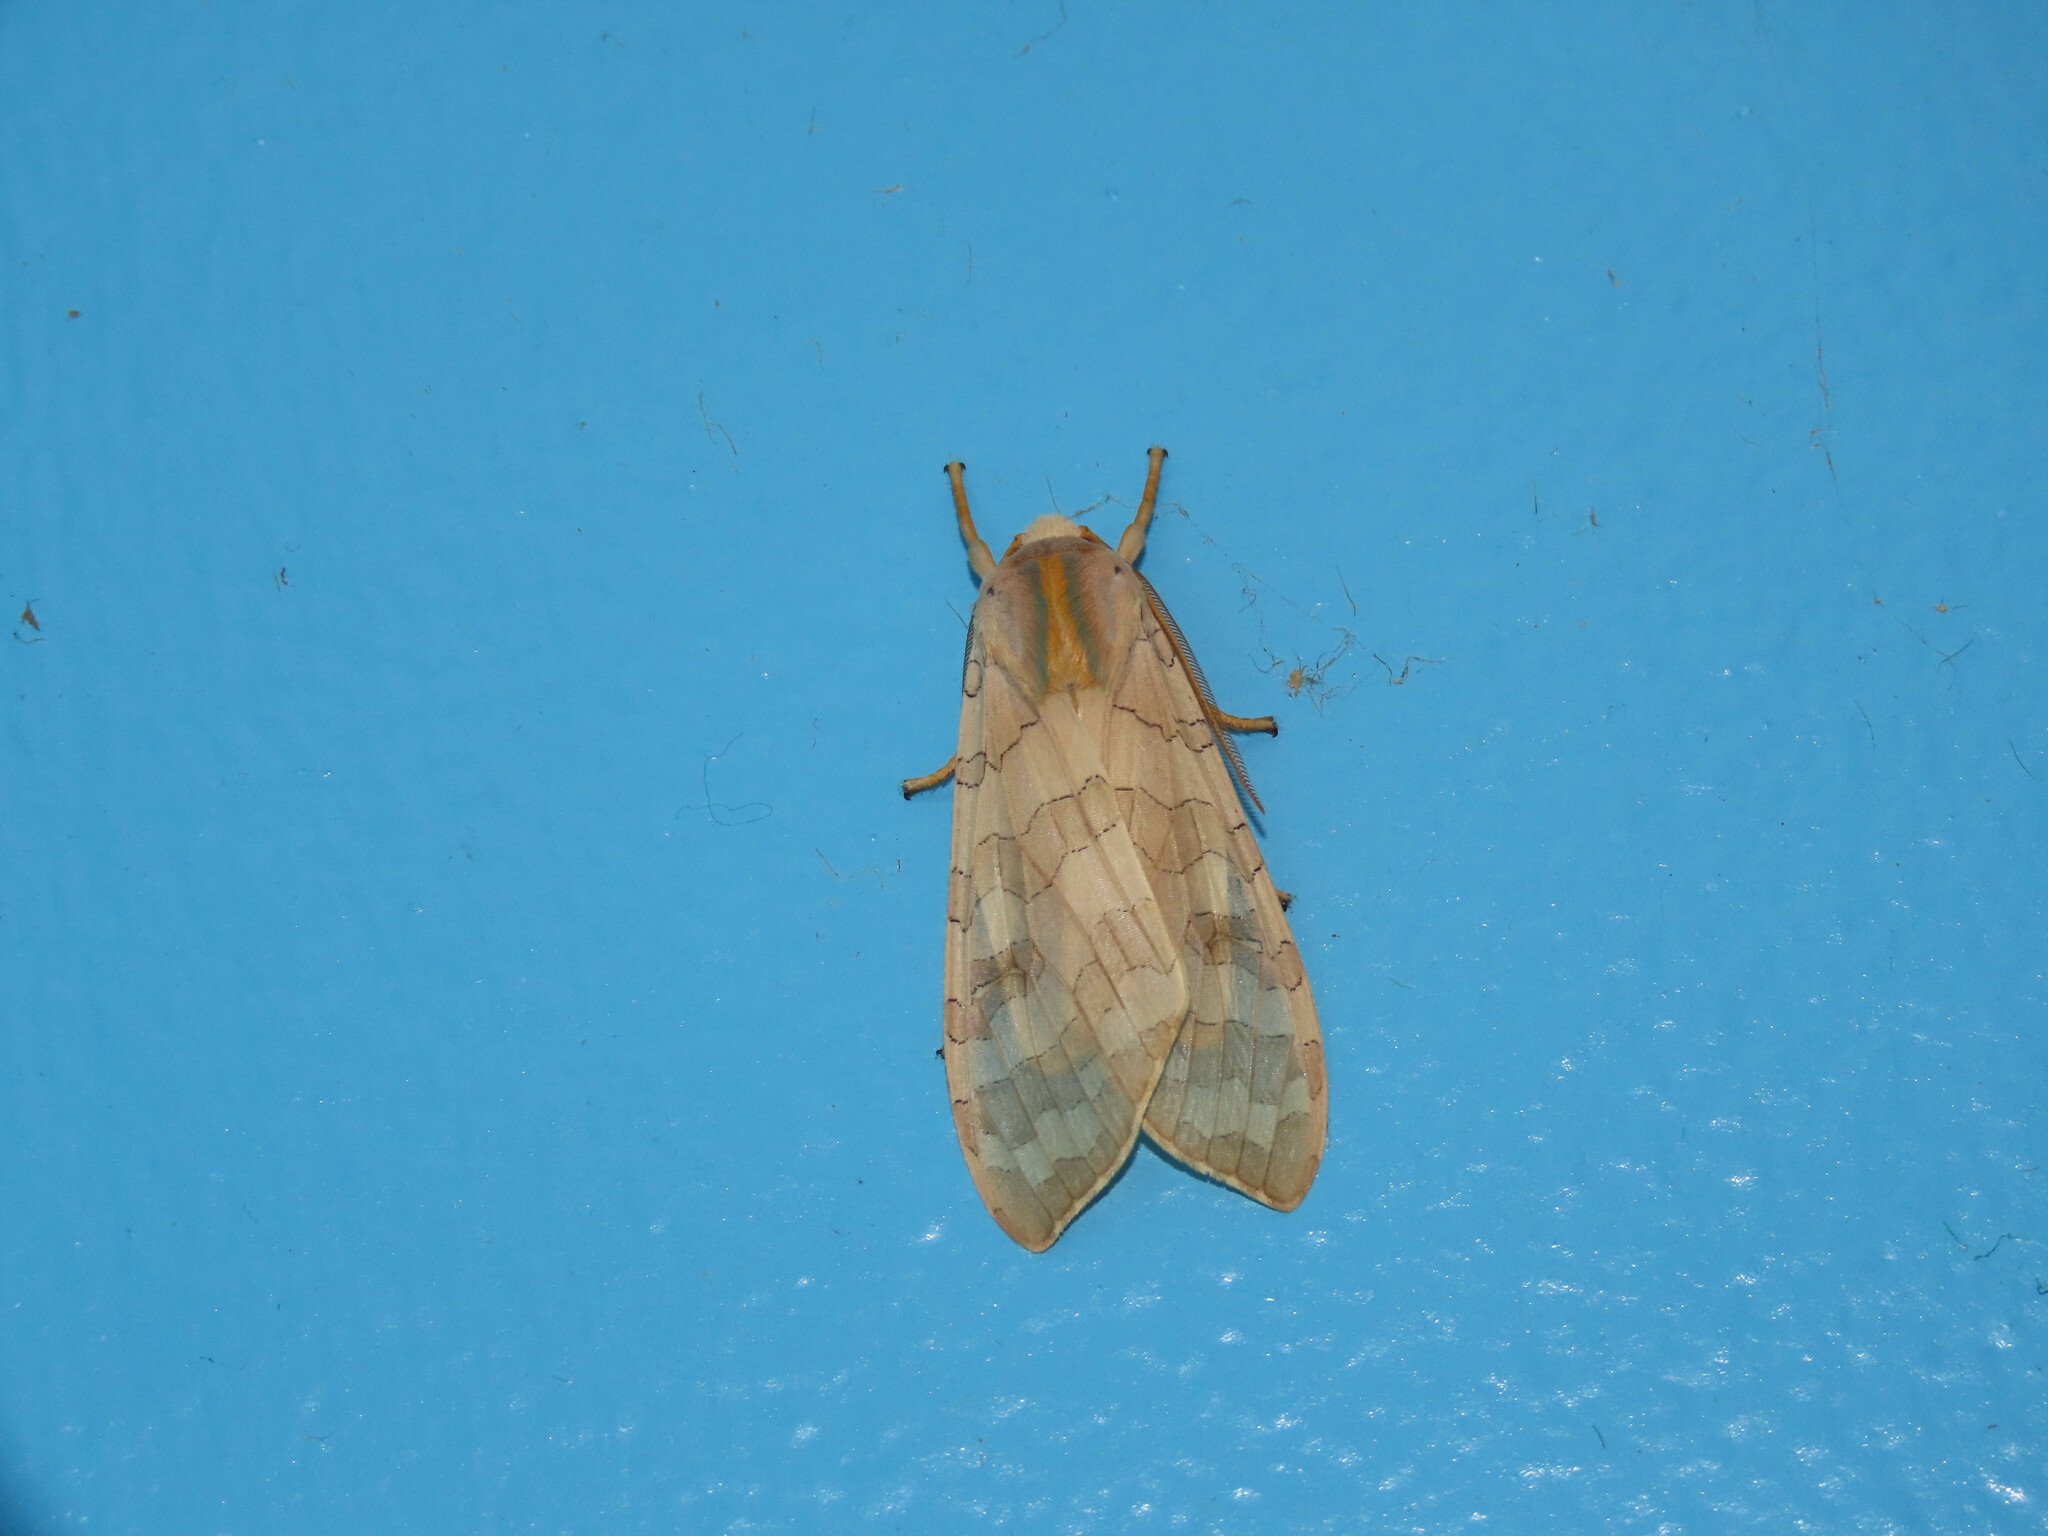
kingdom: Animalia
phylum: Arthropoda
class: Insecta
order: Lepidoptera
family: Erebidae
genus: Halysidota
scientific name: Halysidota
